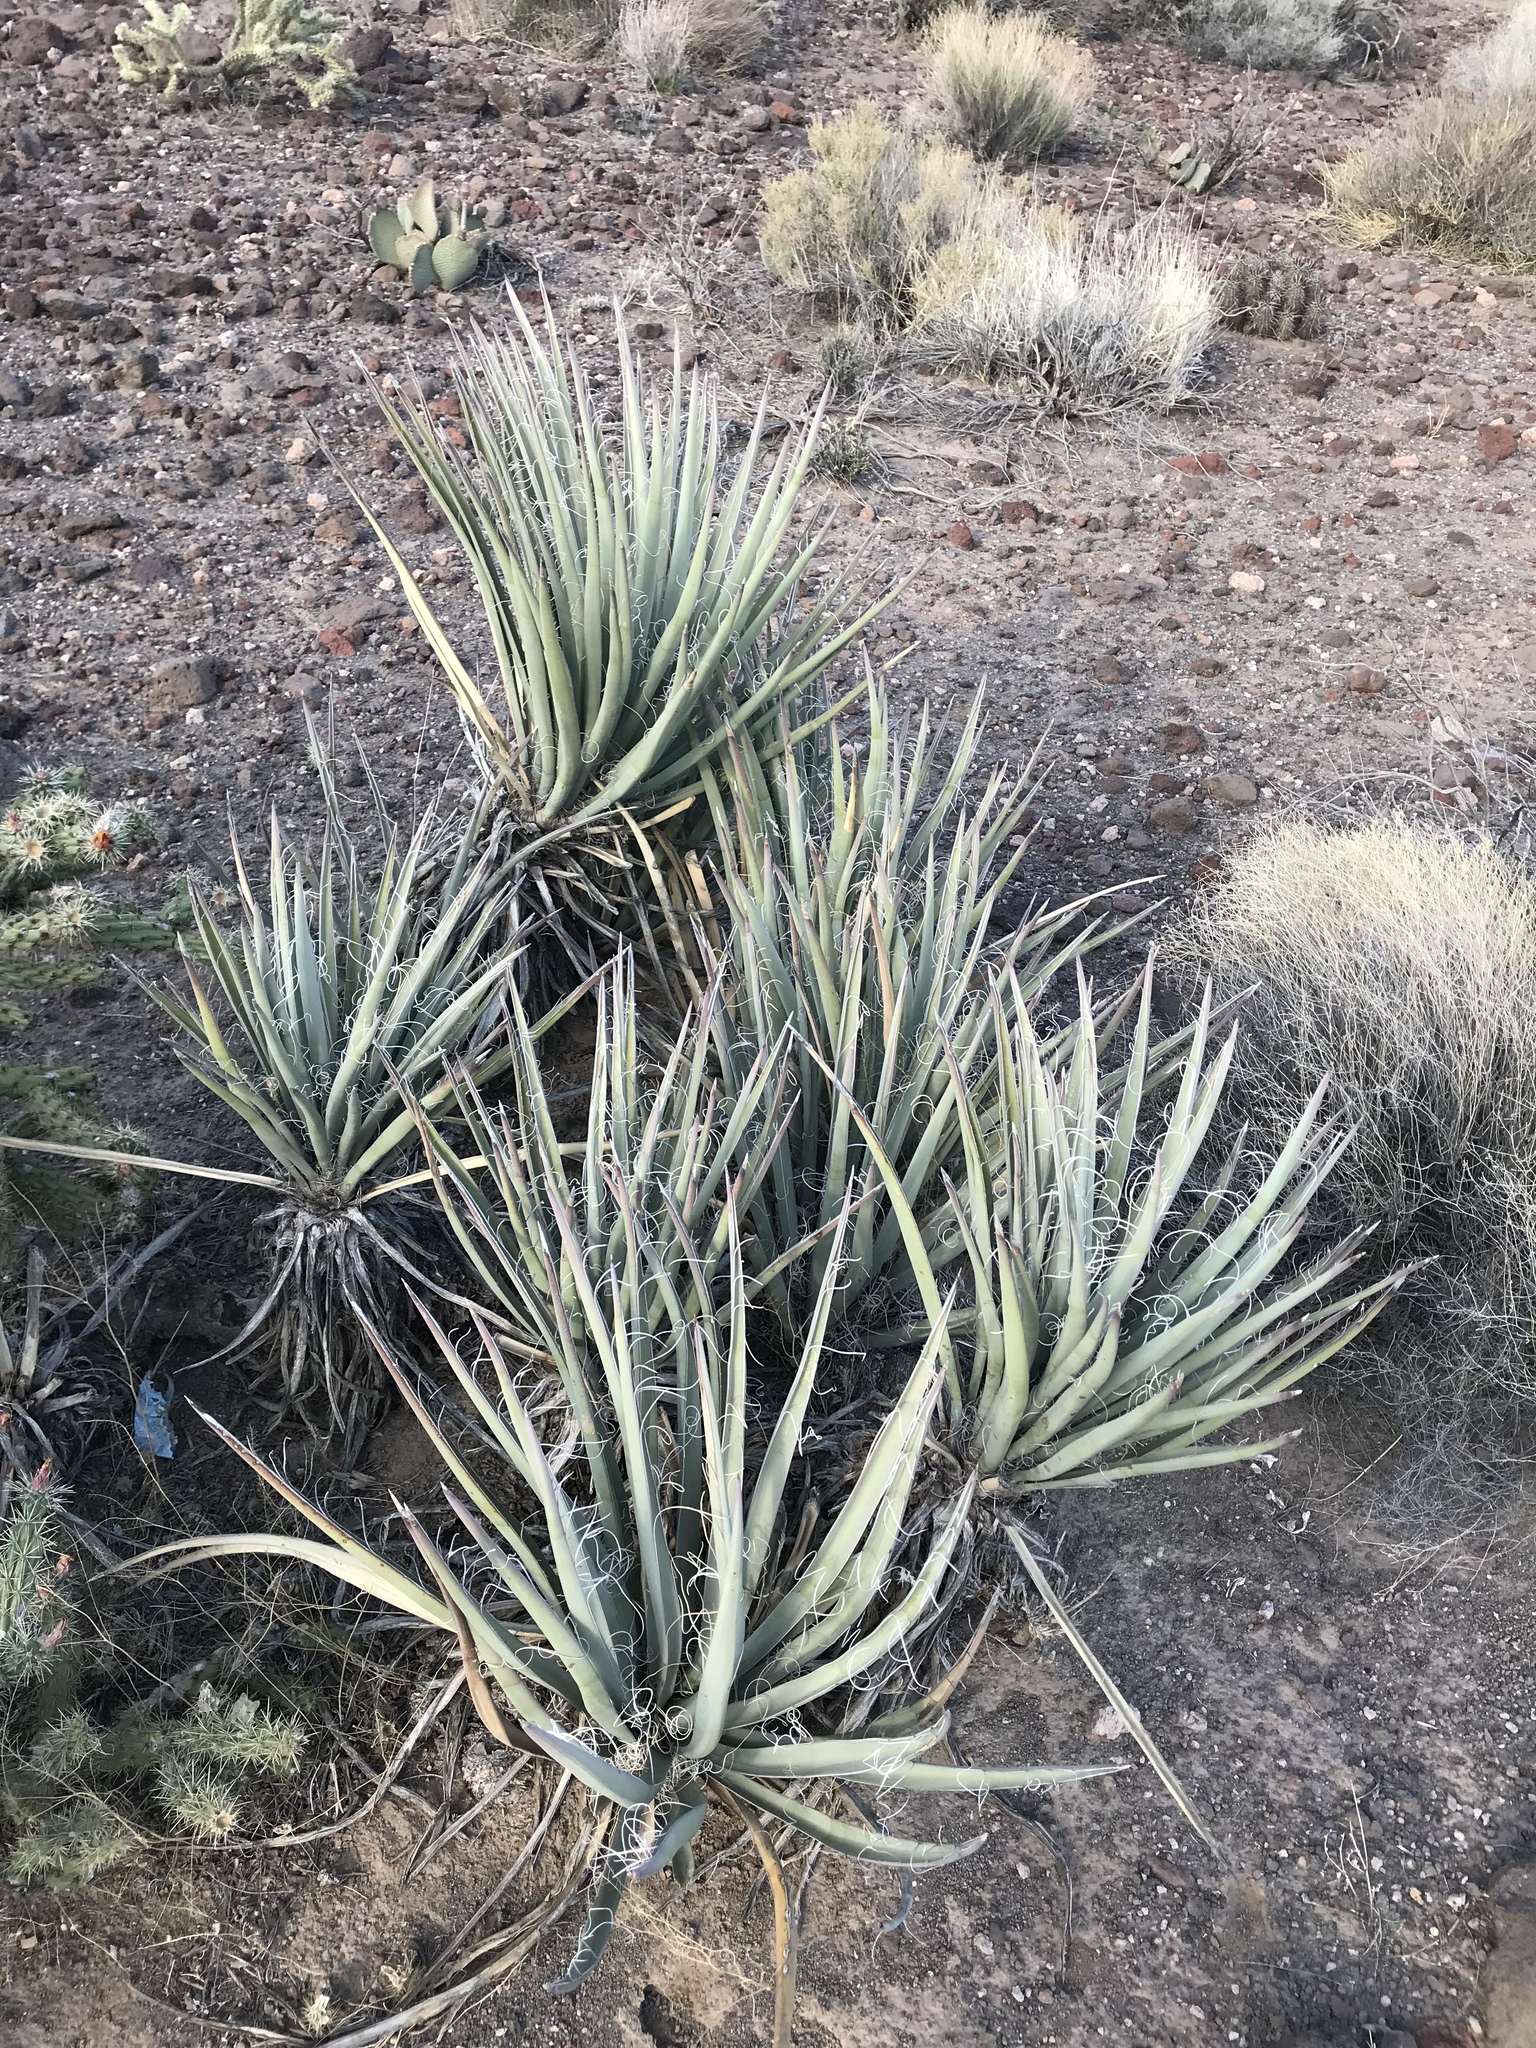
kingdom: Plantae
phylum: Tracheophyta
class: Liliopsida
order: Asparagales
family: Asparagaceae
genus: Yucca
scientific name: Yucca baccata
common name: Banana yucca
